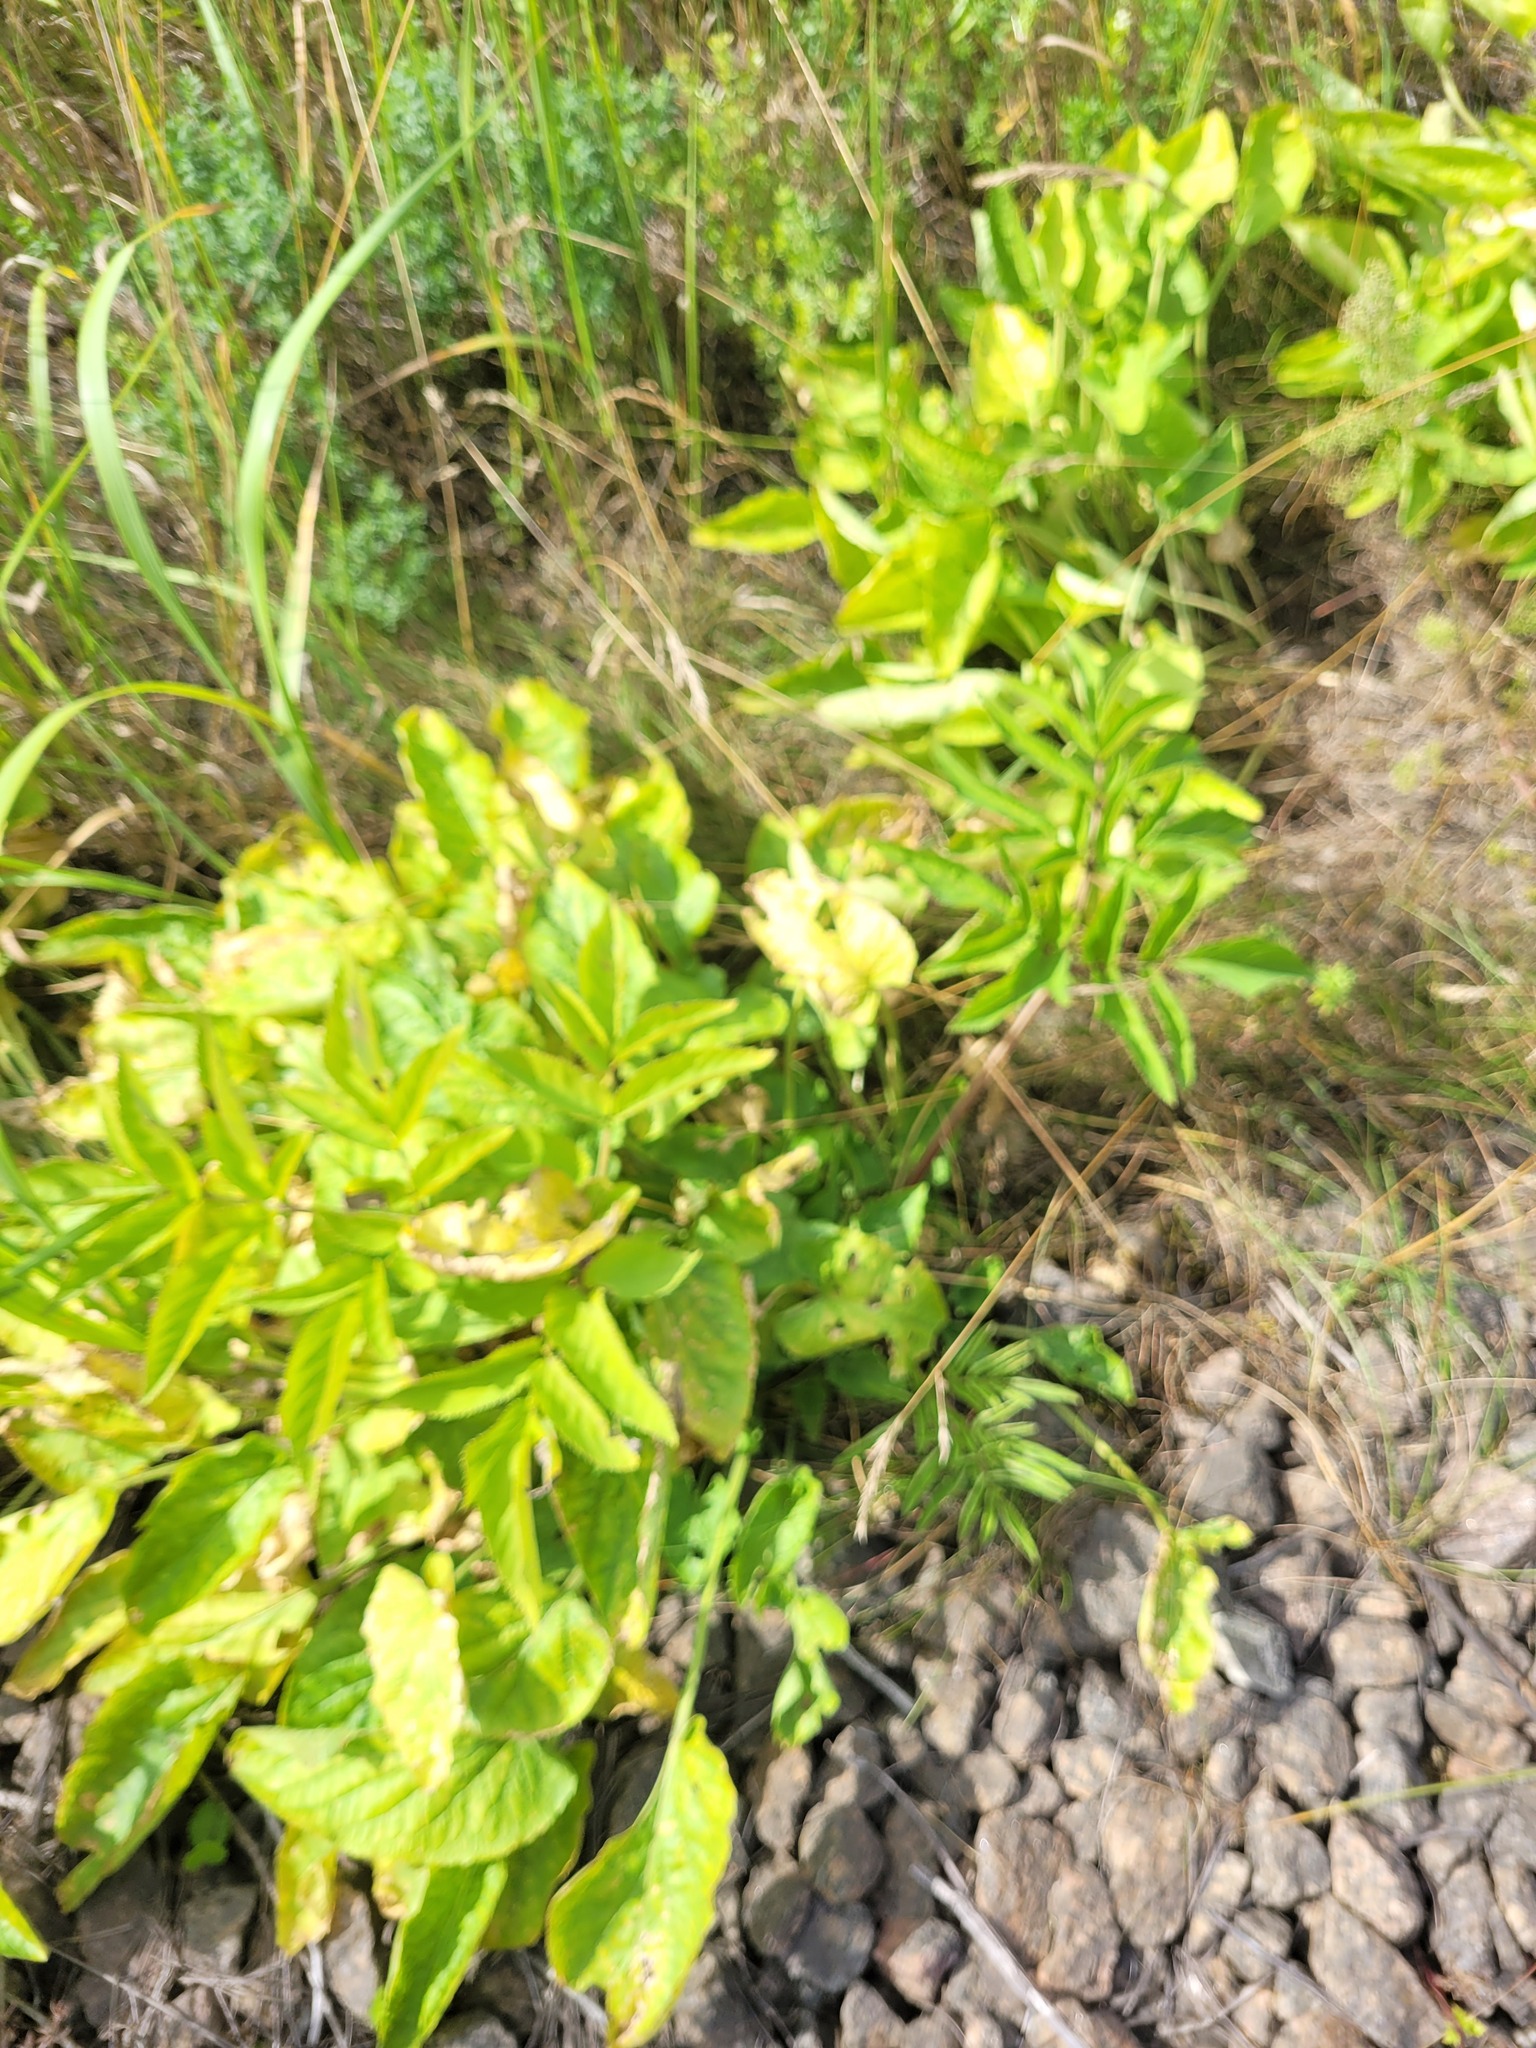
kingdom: Plantae
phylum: Tracheophyta
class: Magnoliopsida
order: Apiales
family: Apiaceae
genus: Angelica
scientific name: Angelica sylvestris
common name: Wild angelica
